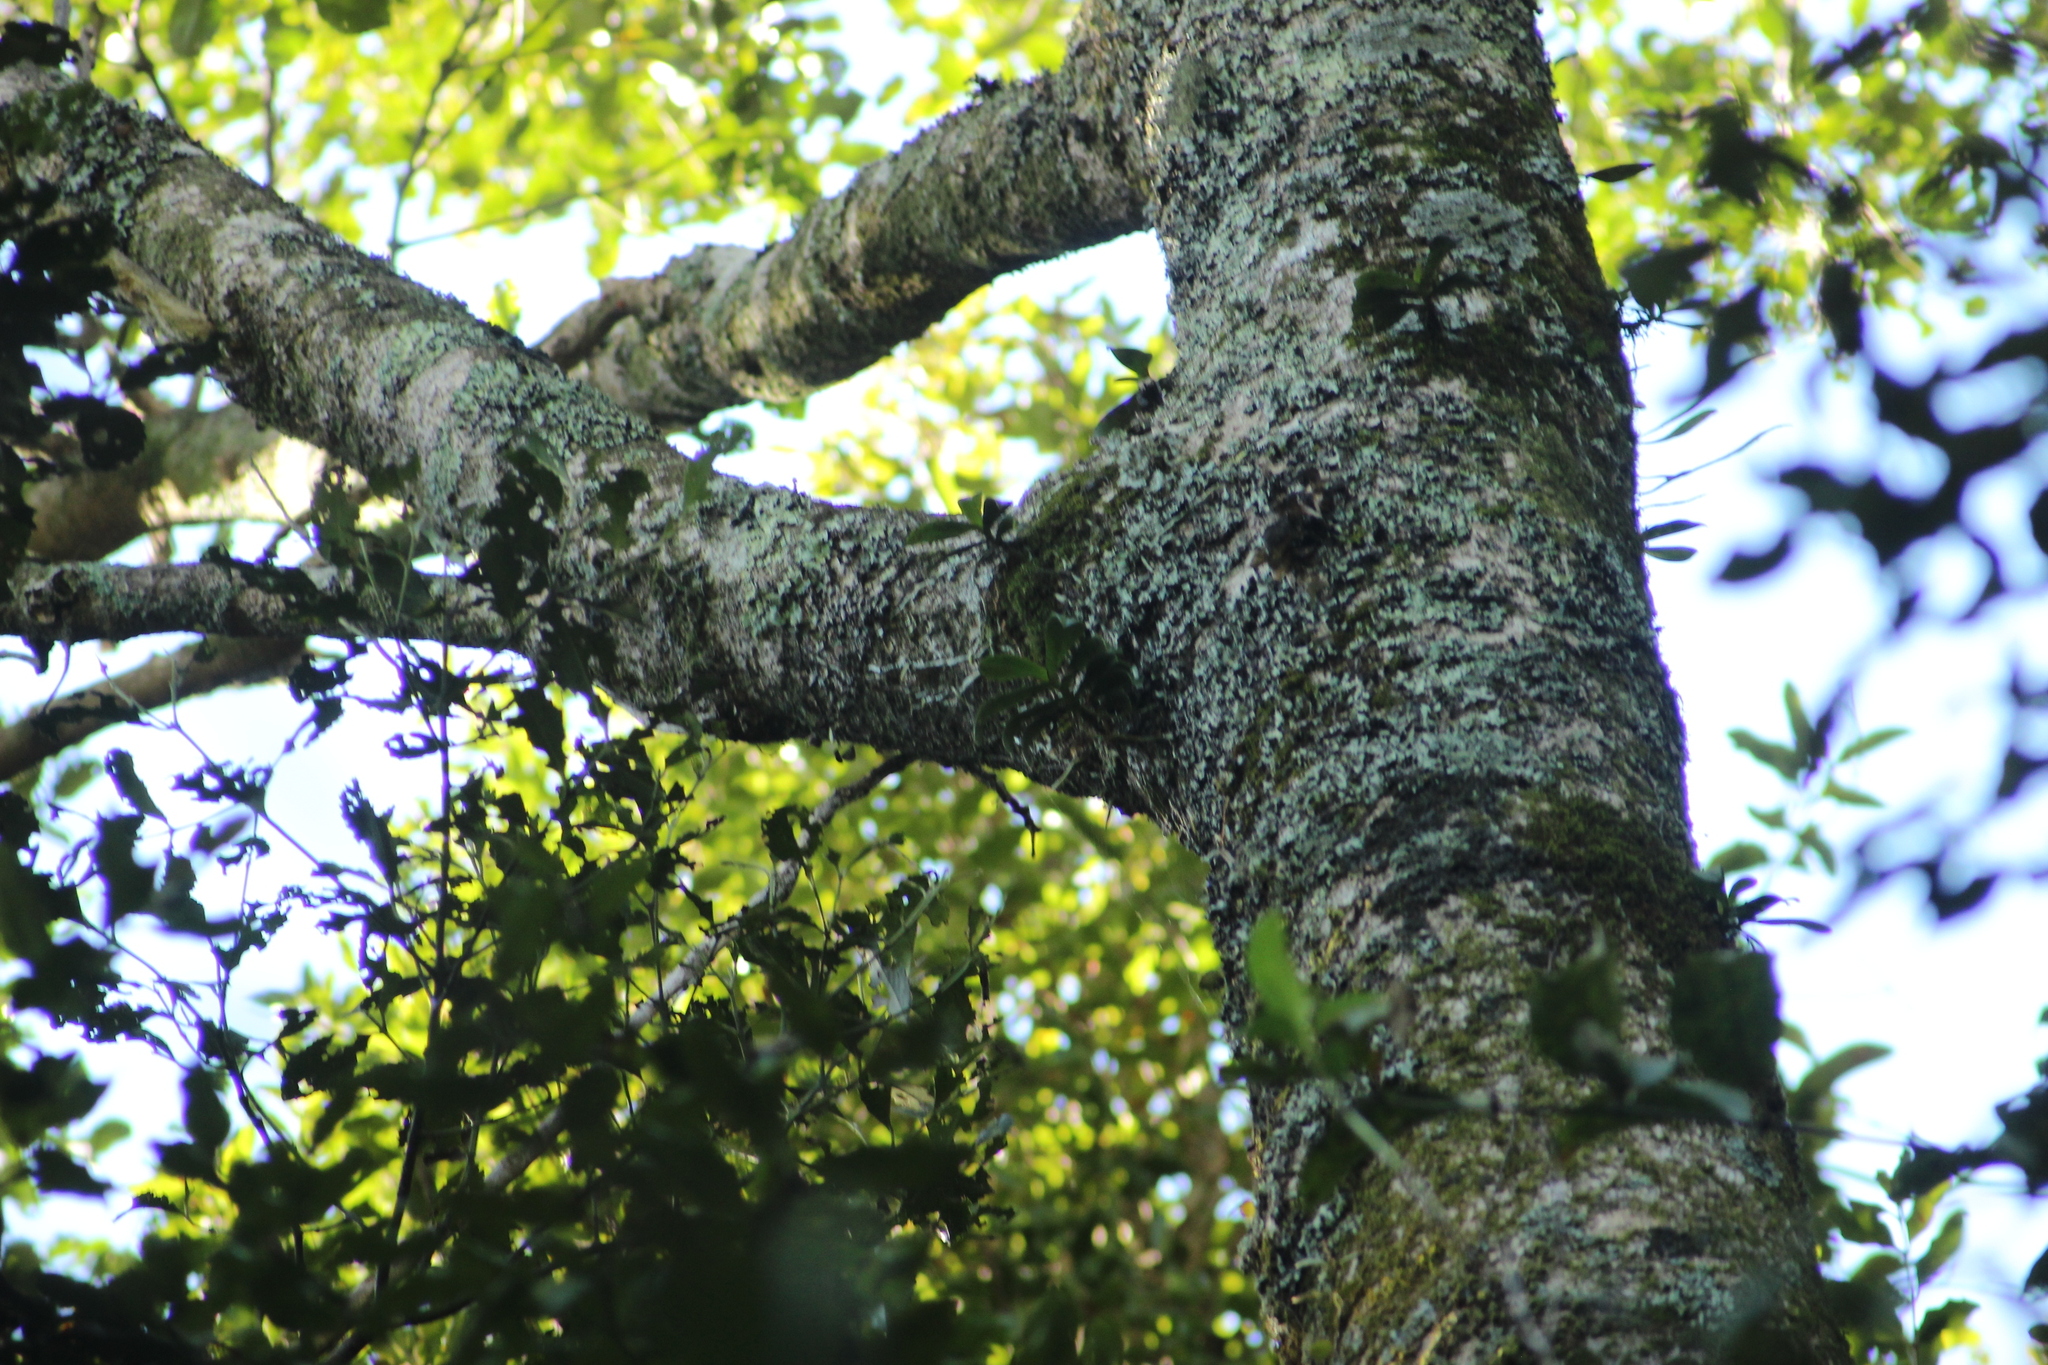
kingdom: Plantae
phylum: Tracheophyta
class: Liliopsida
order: Asparagales
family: Orchidaceae
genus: Drymoanthus
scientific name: Drymoanthus adversus
